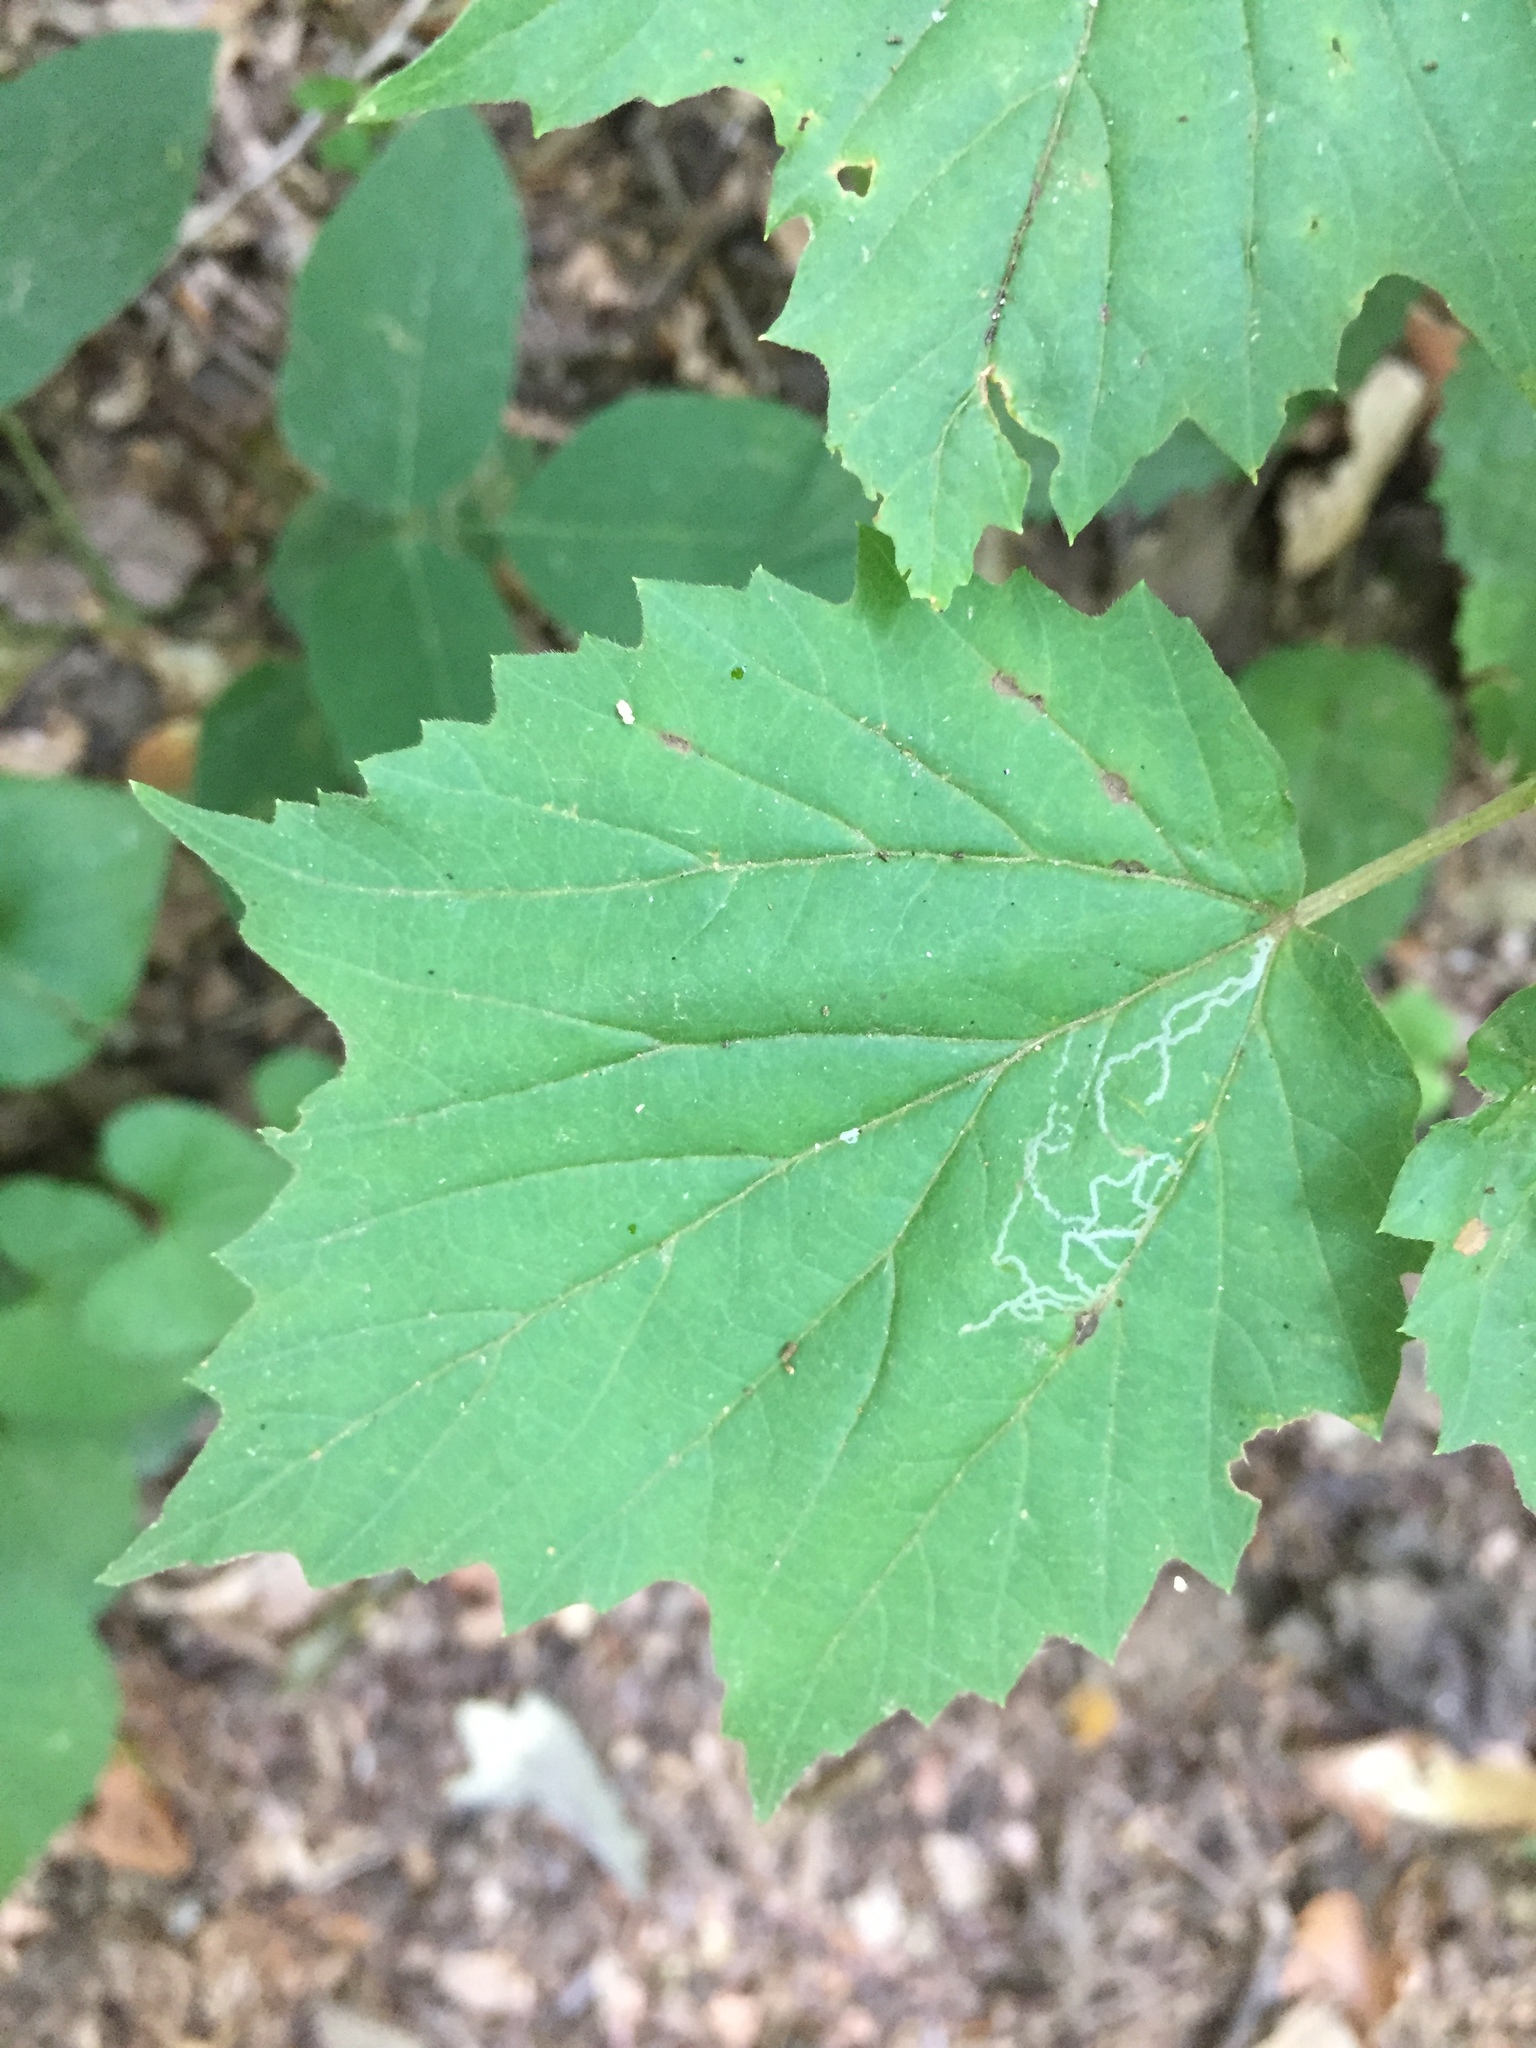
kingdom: Plantae
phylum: Tracheophyta
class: Magnoliopsida
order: Dipsacales
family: Viburnaceae
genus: Viburnum
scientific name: Viburnum acerifolium
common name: Dockmackie
